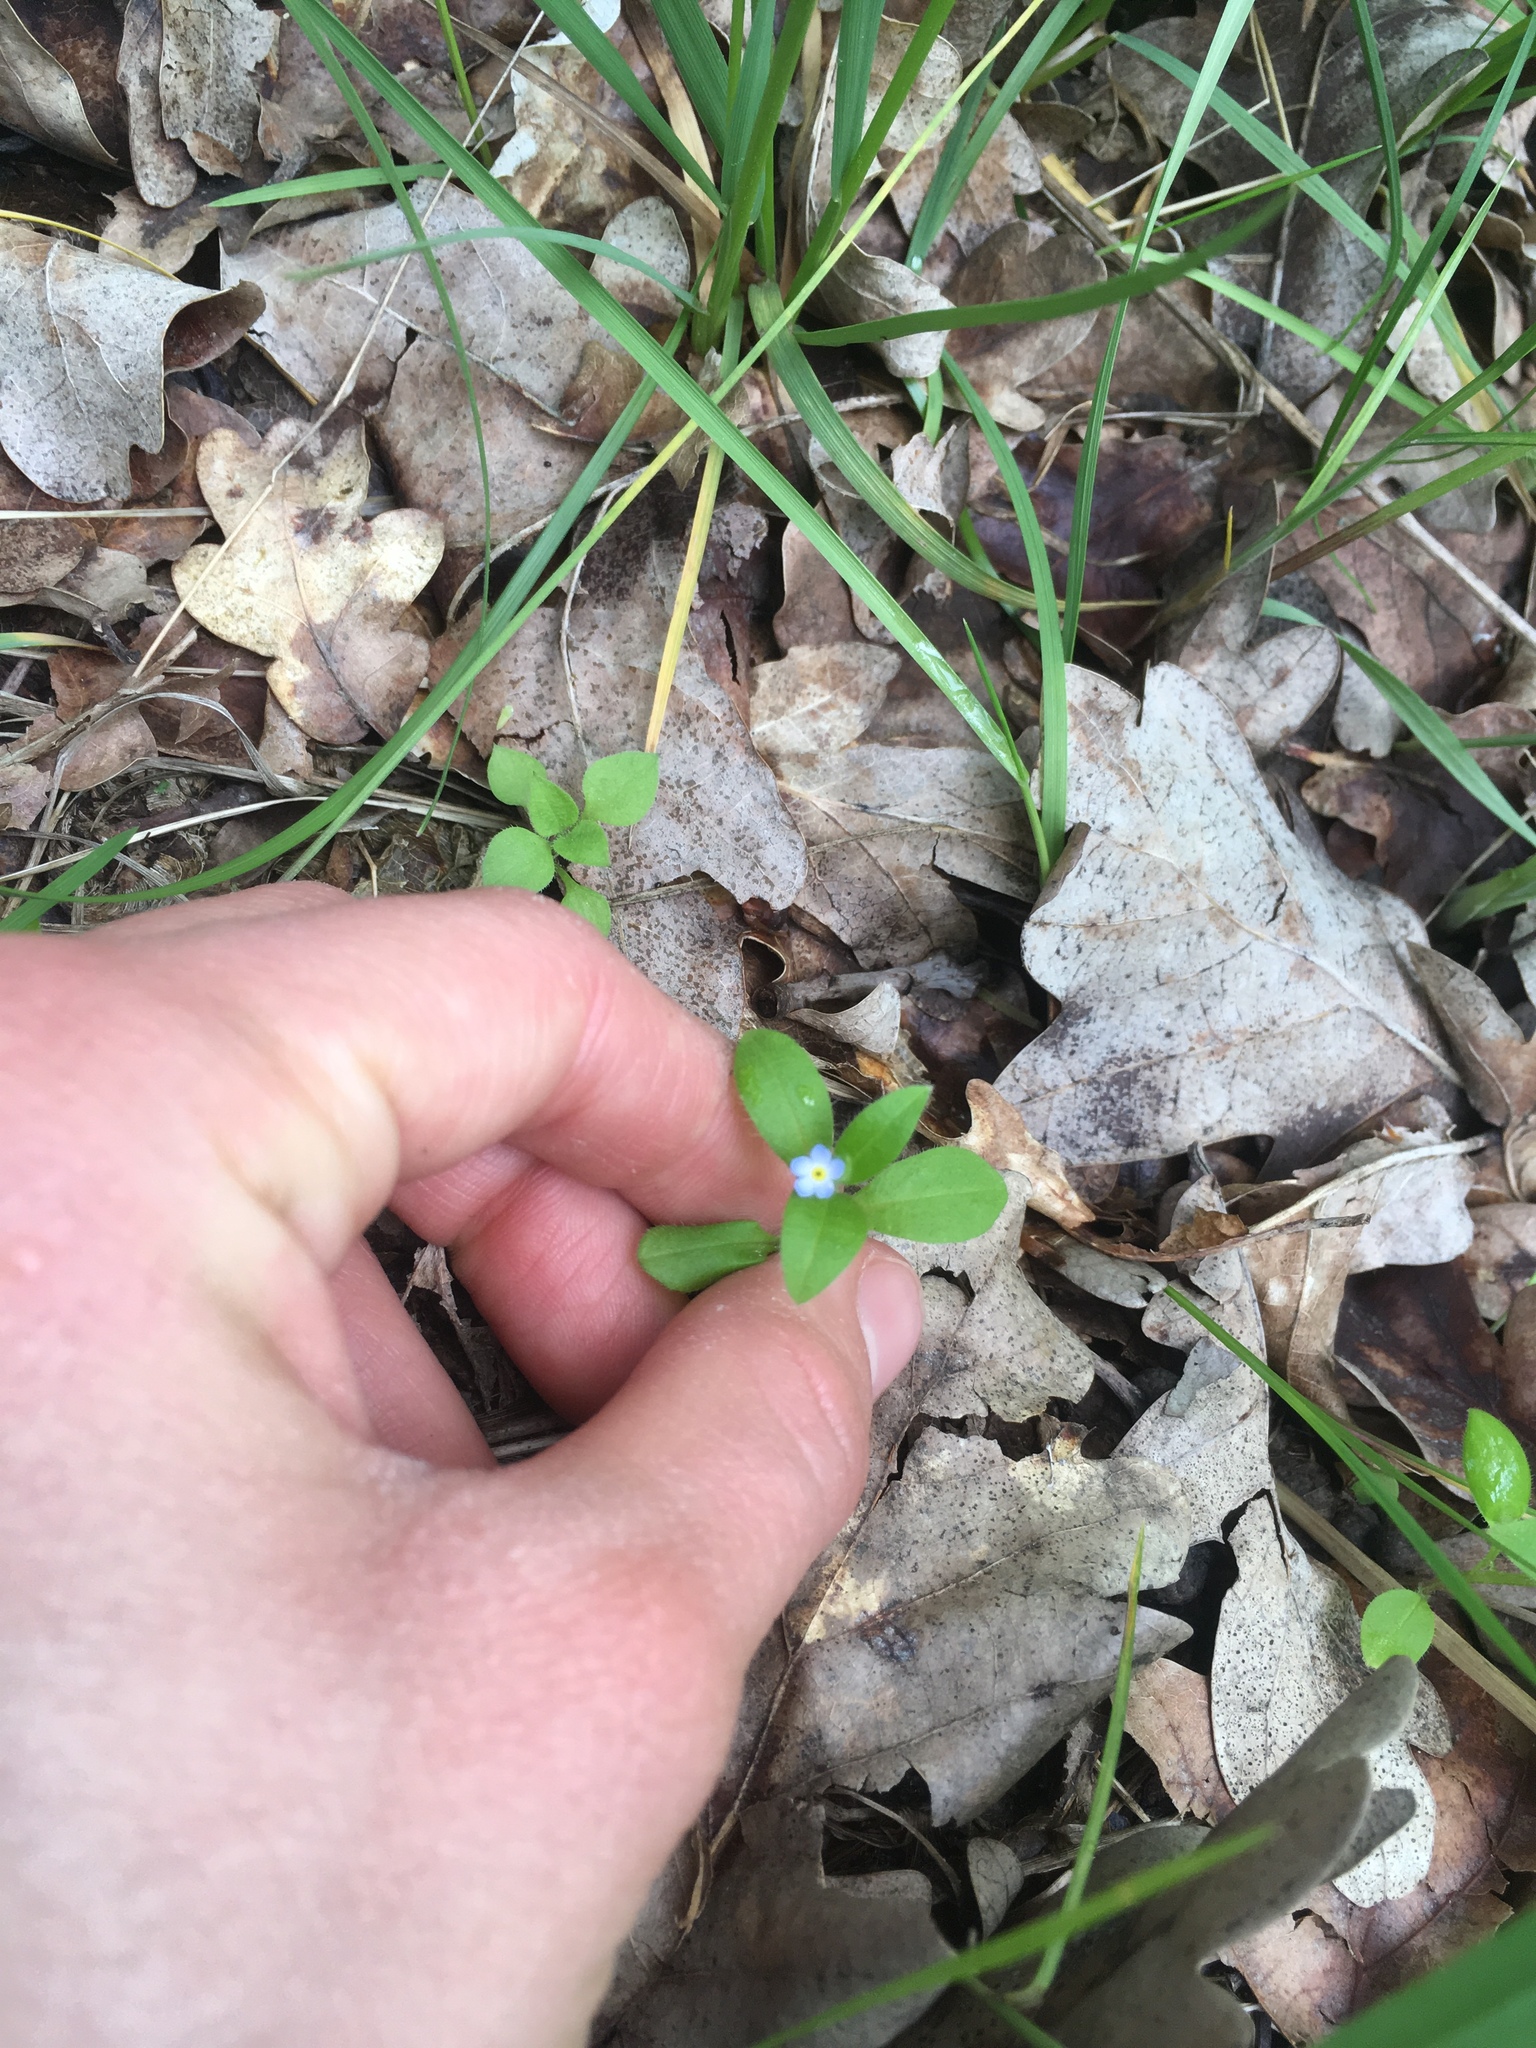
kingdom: Plantae
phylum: Tracheophyta
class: Magnoliopsida
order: Boraginales
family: Boraginaceae
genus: Myosotis
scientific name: Myosotis sparsiflora
